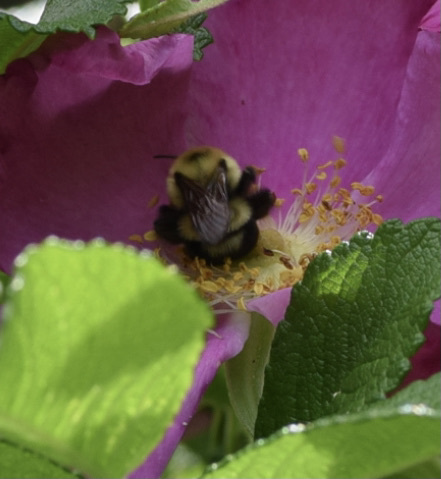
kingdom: Animalia
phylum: Arthropoda
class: Insecta
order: Hymenoptera
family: Apidae
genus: Bombus
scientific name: Bombus bimaculatus
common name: Two-spotted bumble bee
